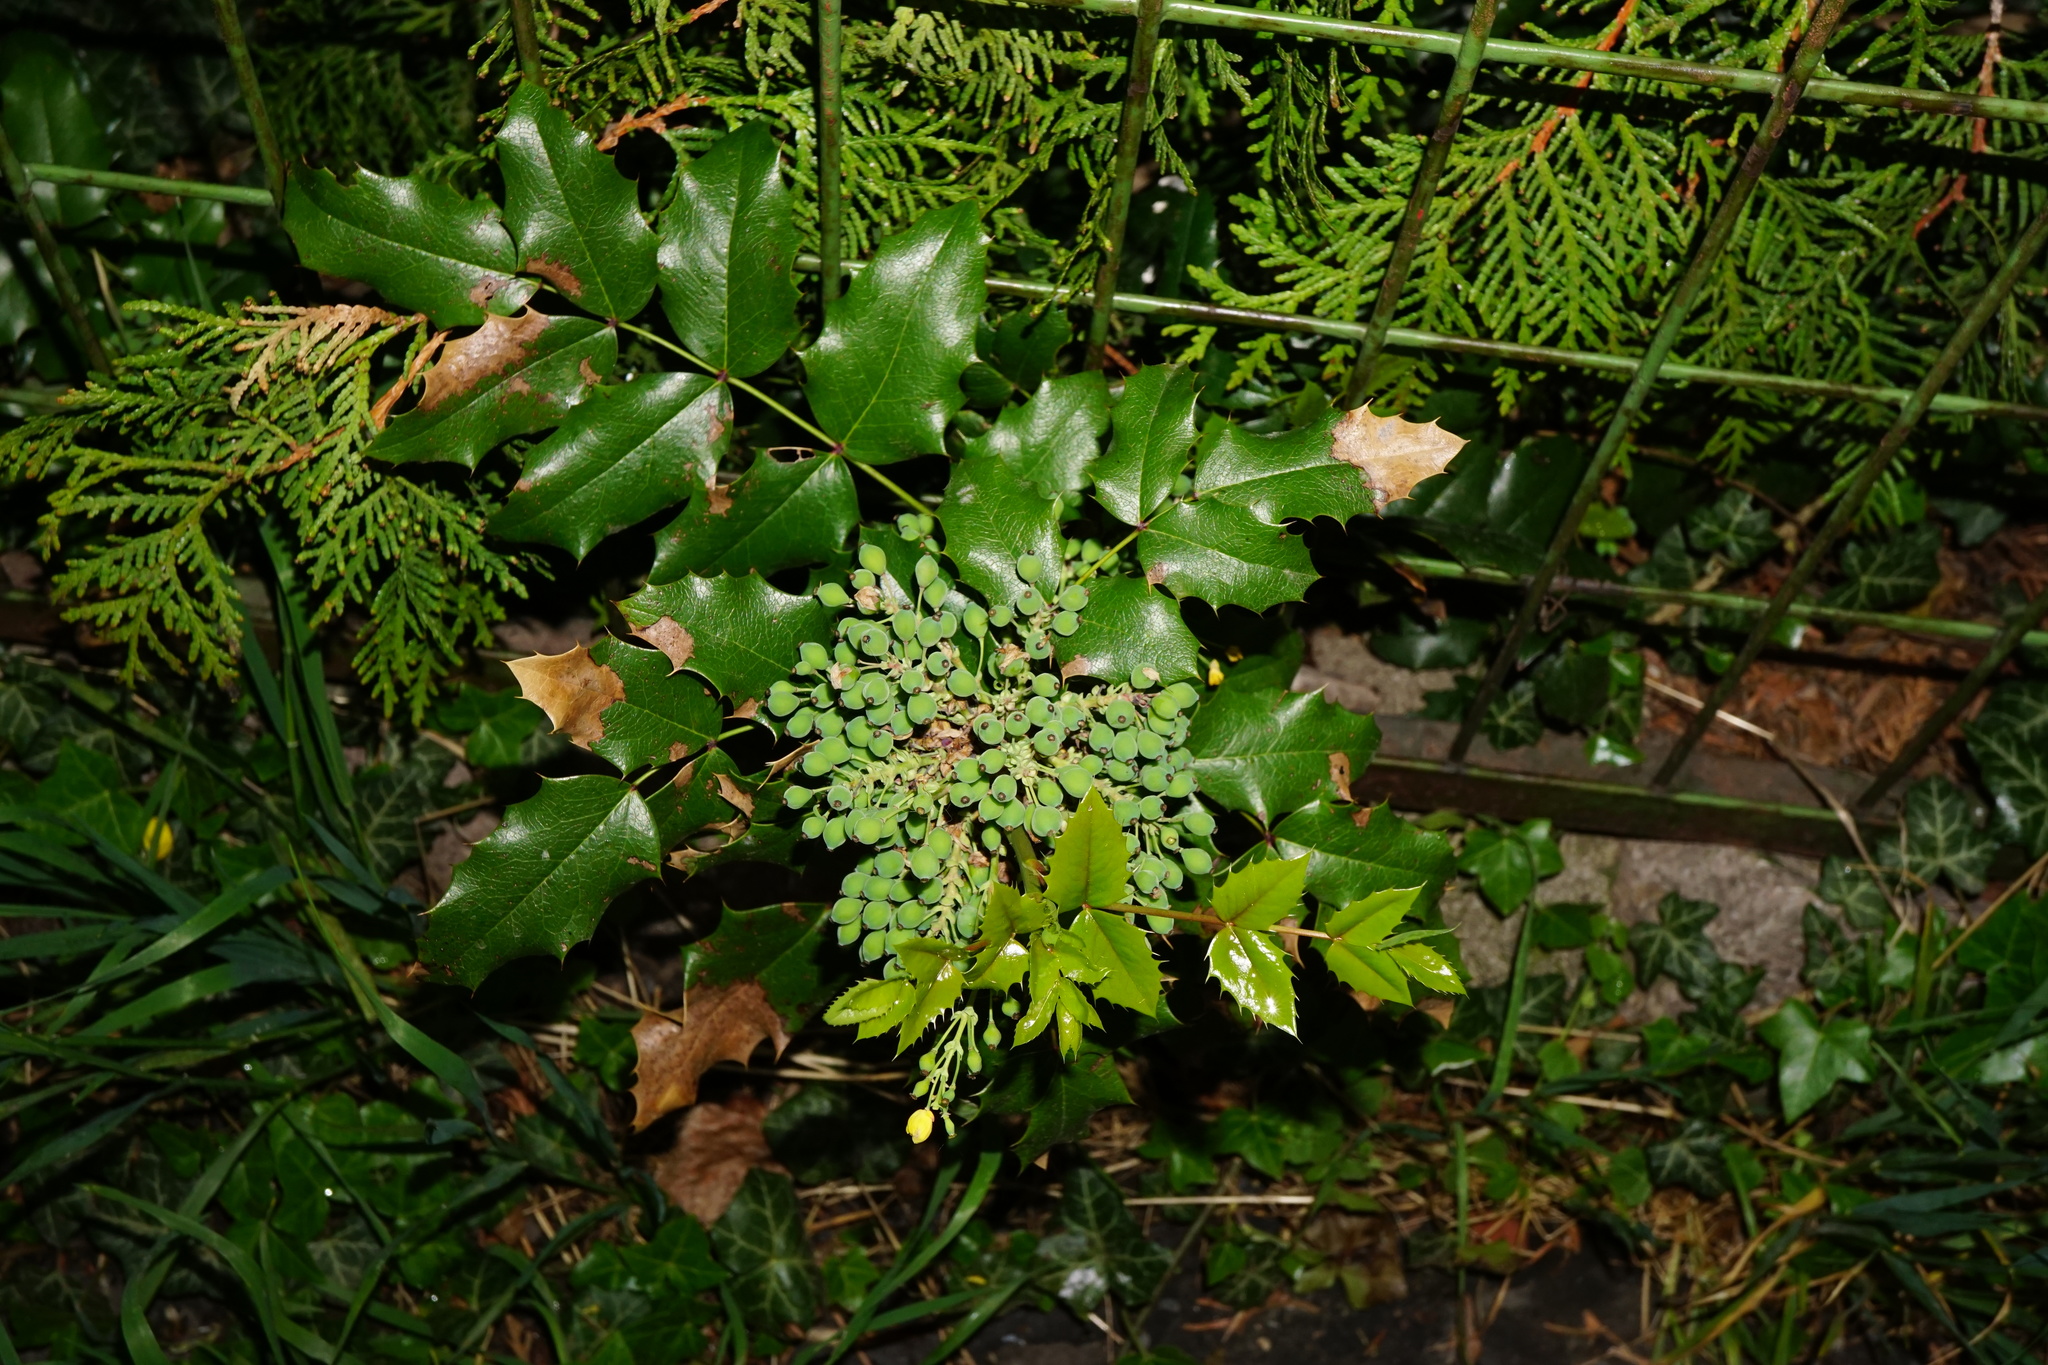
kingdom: Plantae
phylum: Tracheophyta
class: Magnoliopsida
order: Ranunculales
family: Berberidaceae
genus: Mahonia
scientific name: Mahonia aquifolium
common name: Oregon-grape
